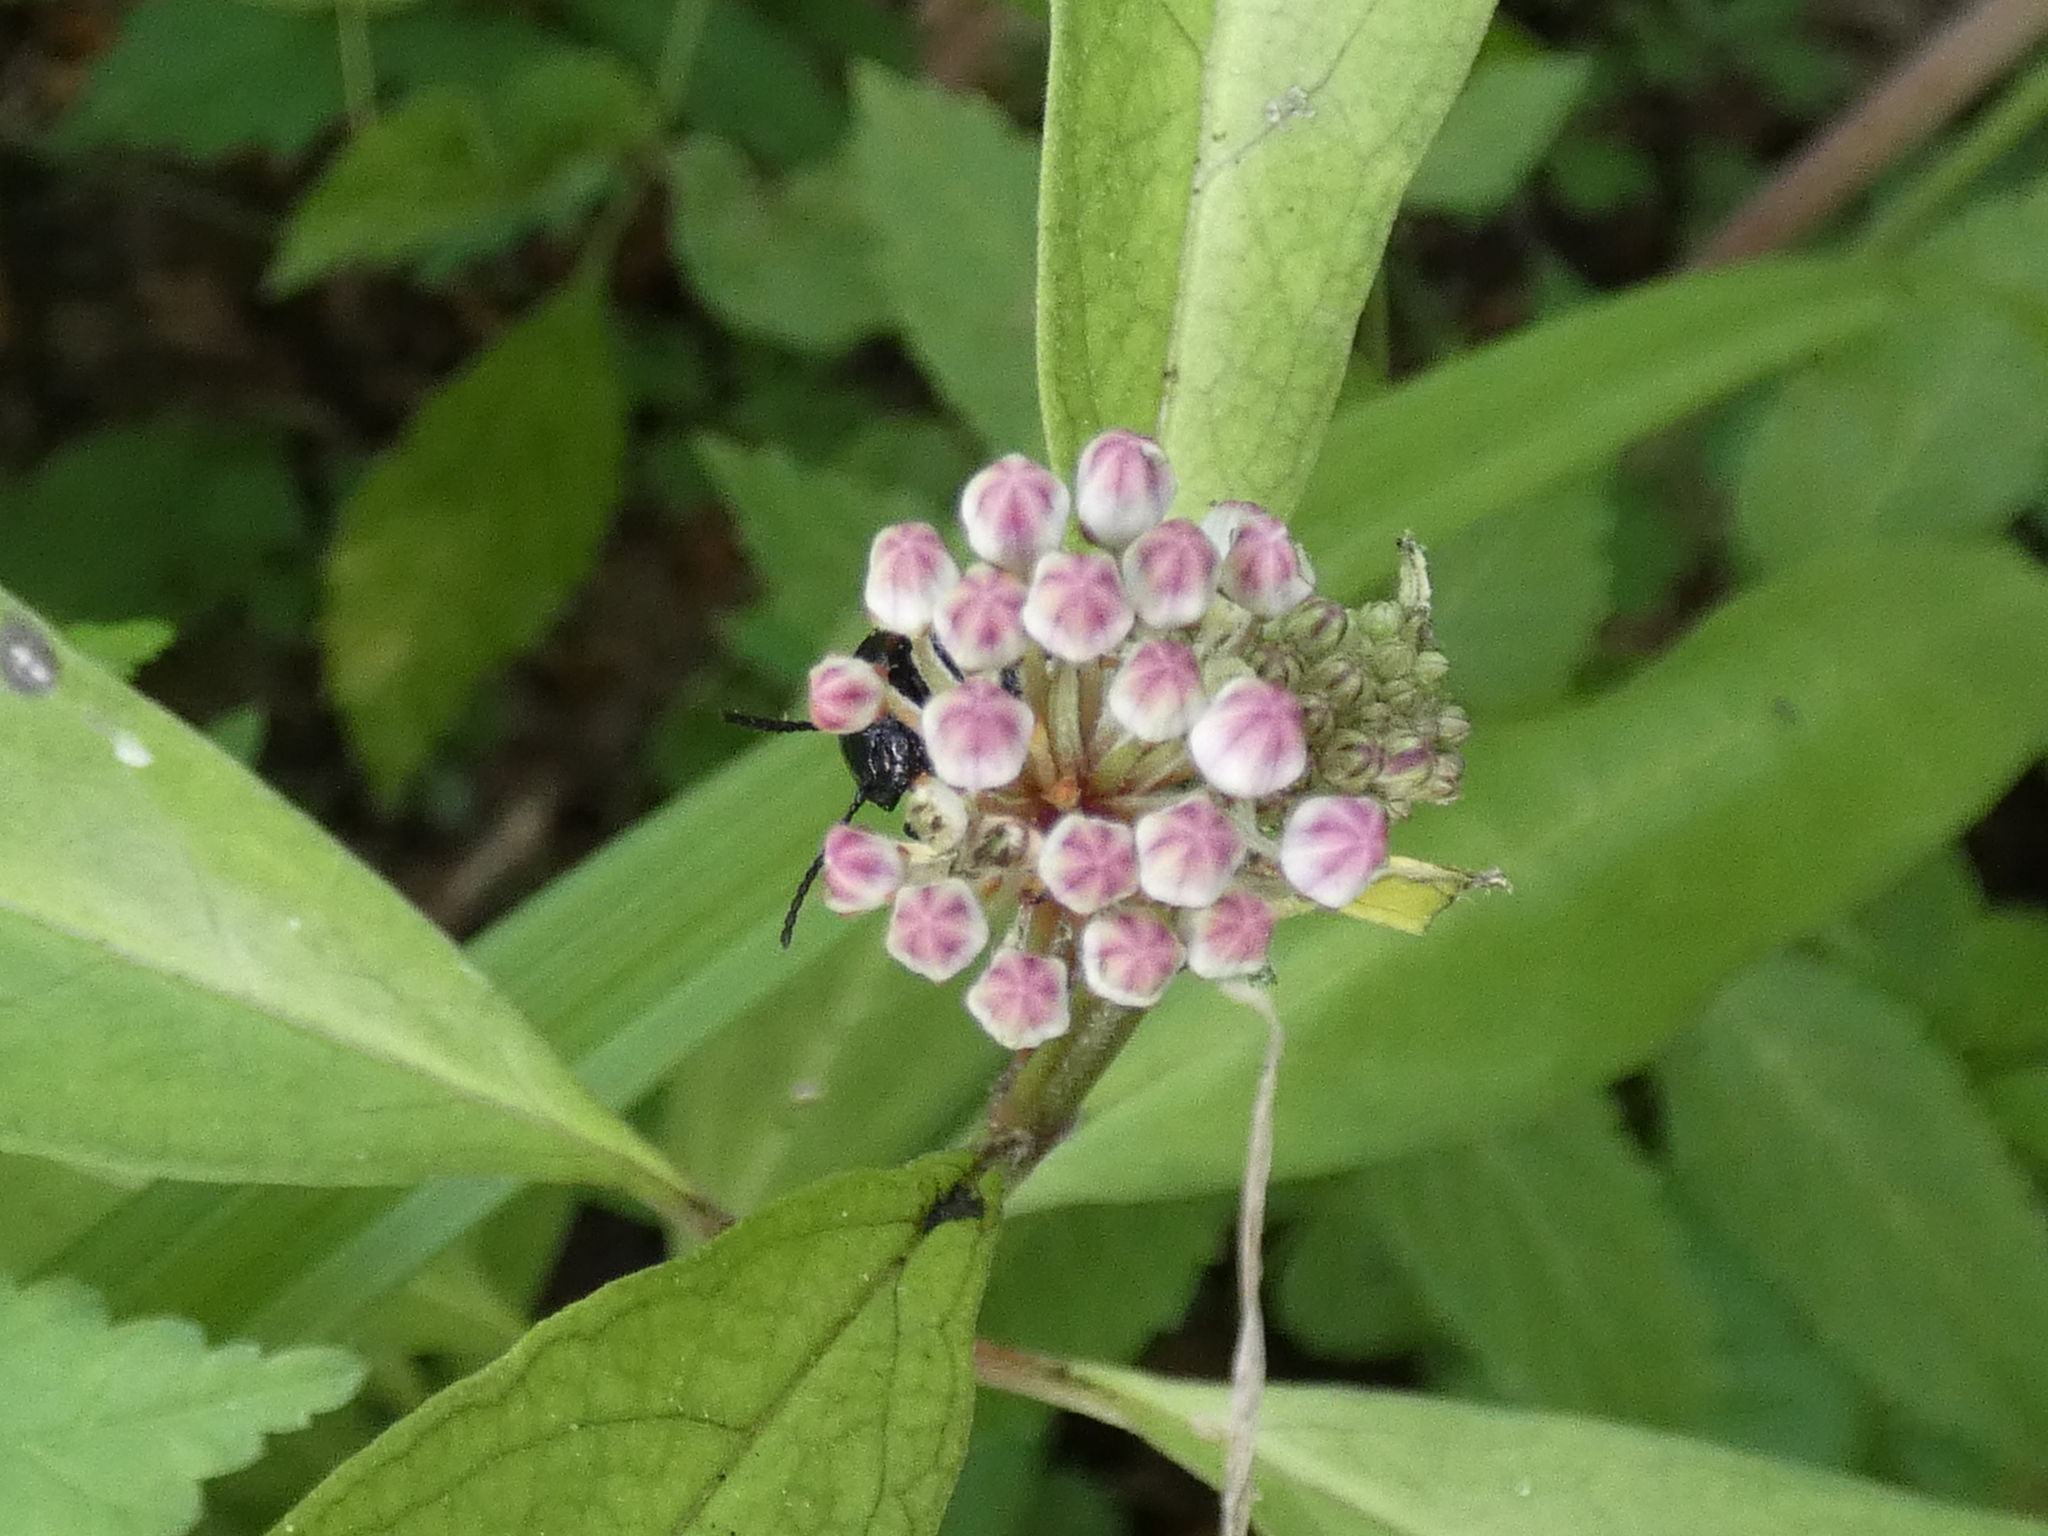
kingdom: Plantae
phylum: Tracheophyta
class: Magnoliopsida
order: Gentianales
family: Apocynaceae
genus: Asclepias
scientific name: Asclepias perennis
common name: Smooth-seed milkweed
